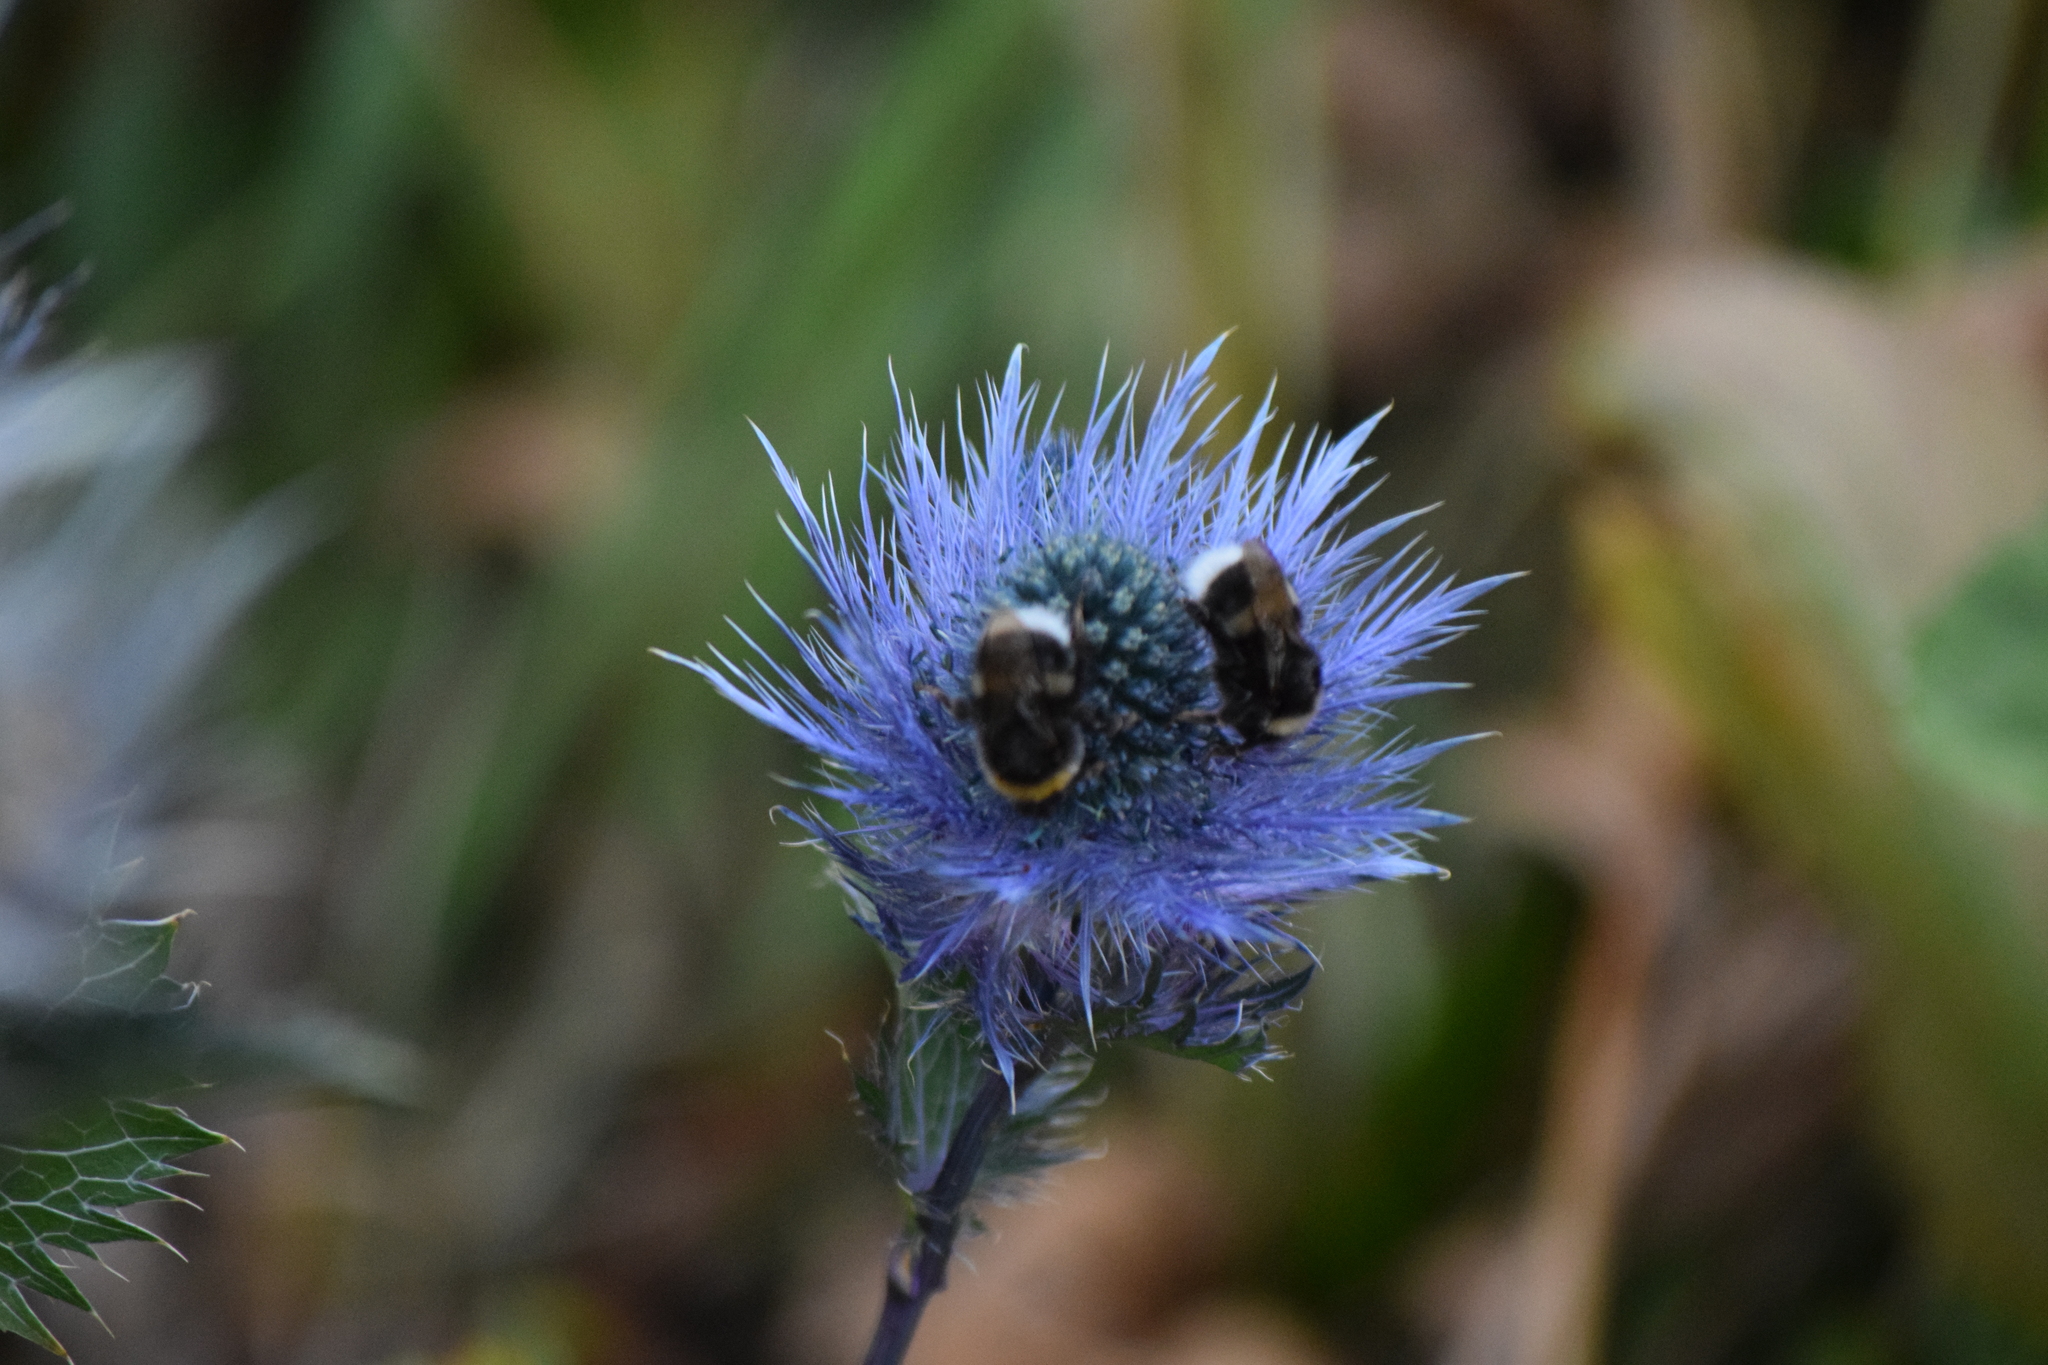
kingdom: Plantae
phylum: Tracheophyta
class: Magnoliopsida
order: Apiales
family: Apiaceae
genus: Eryngium
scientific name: Eryngium alpinum
